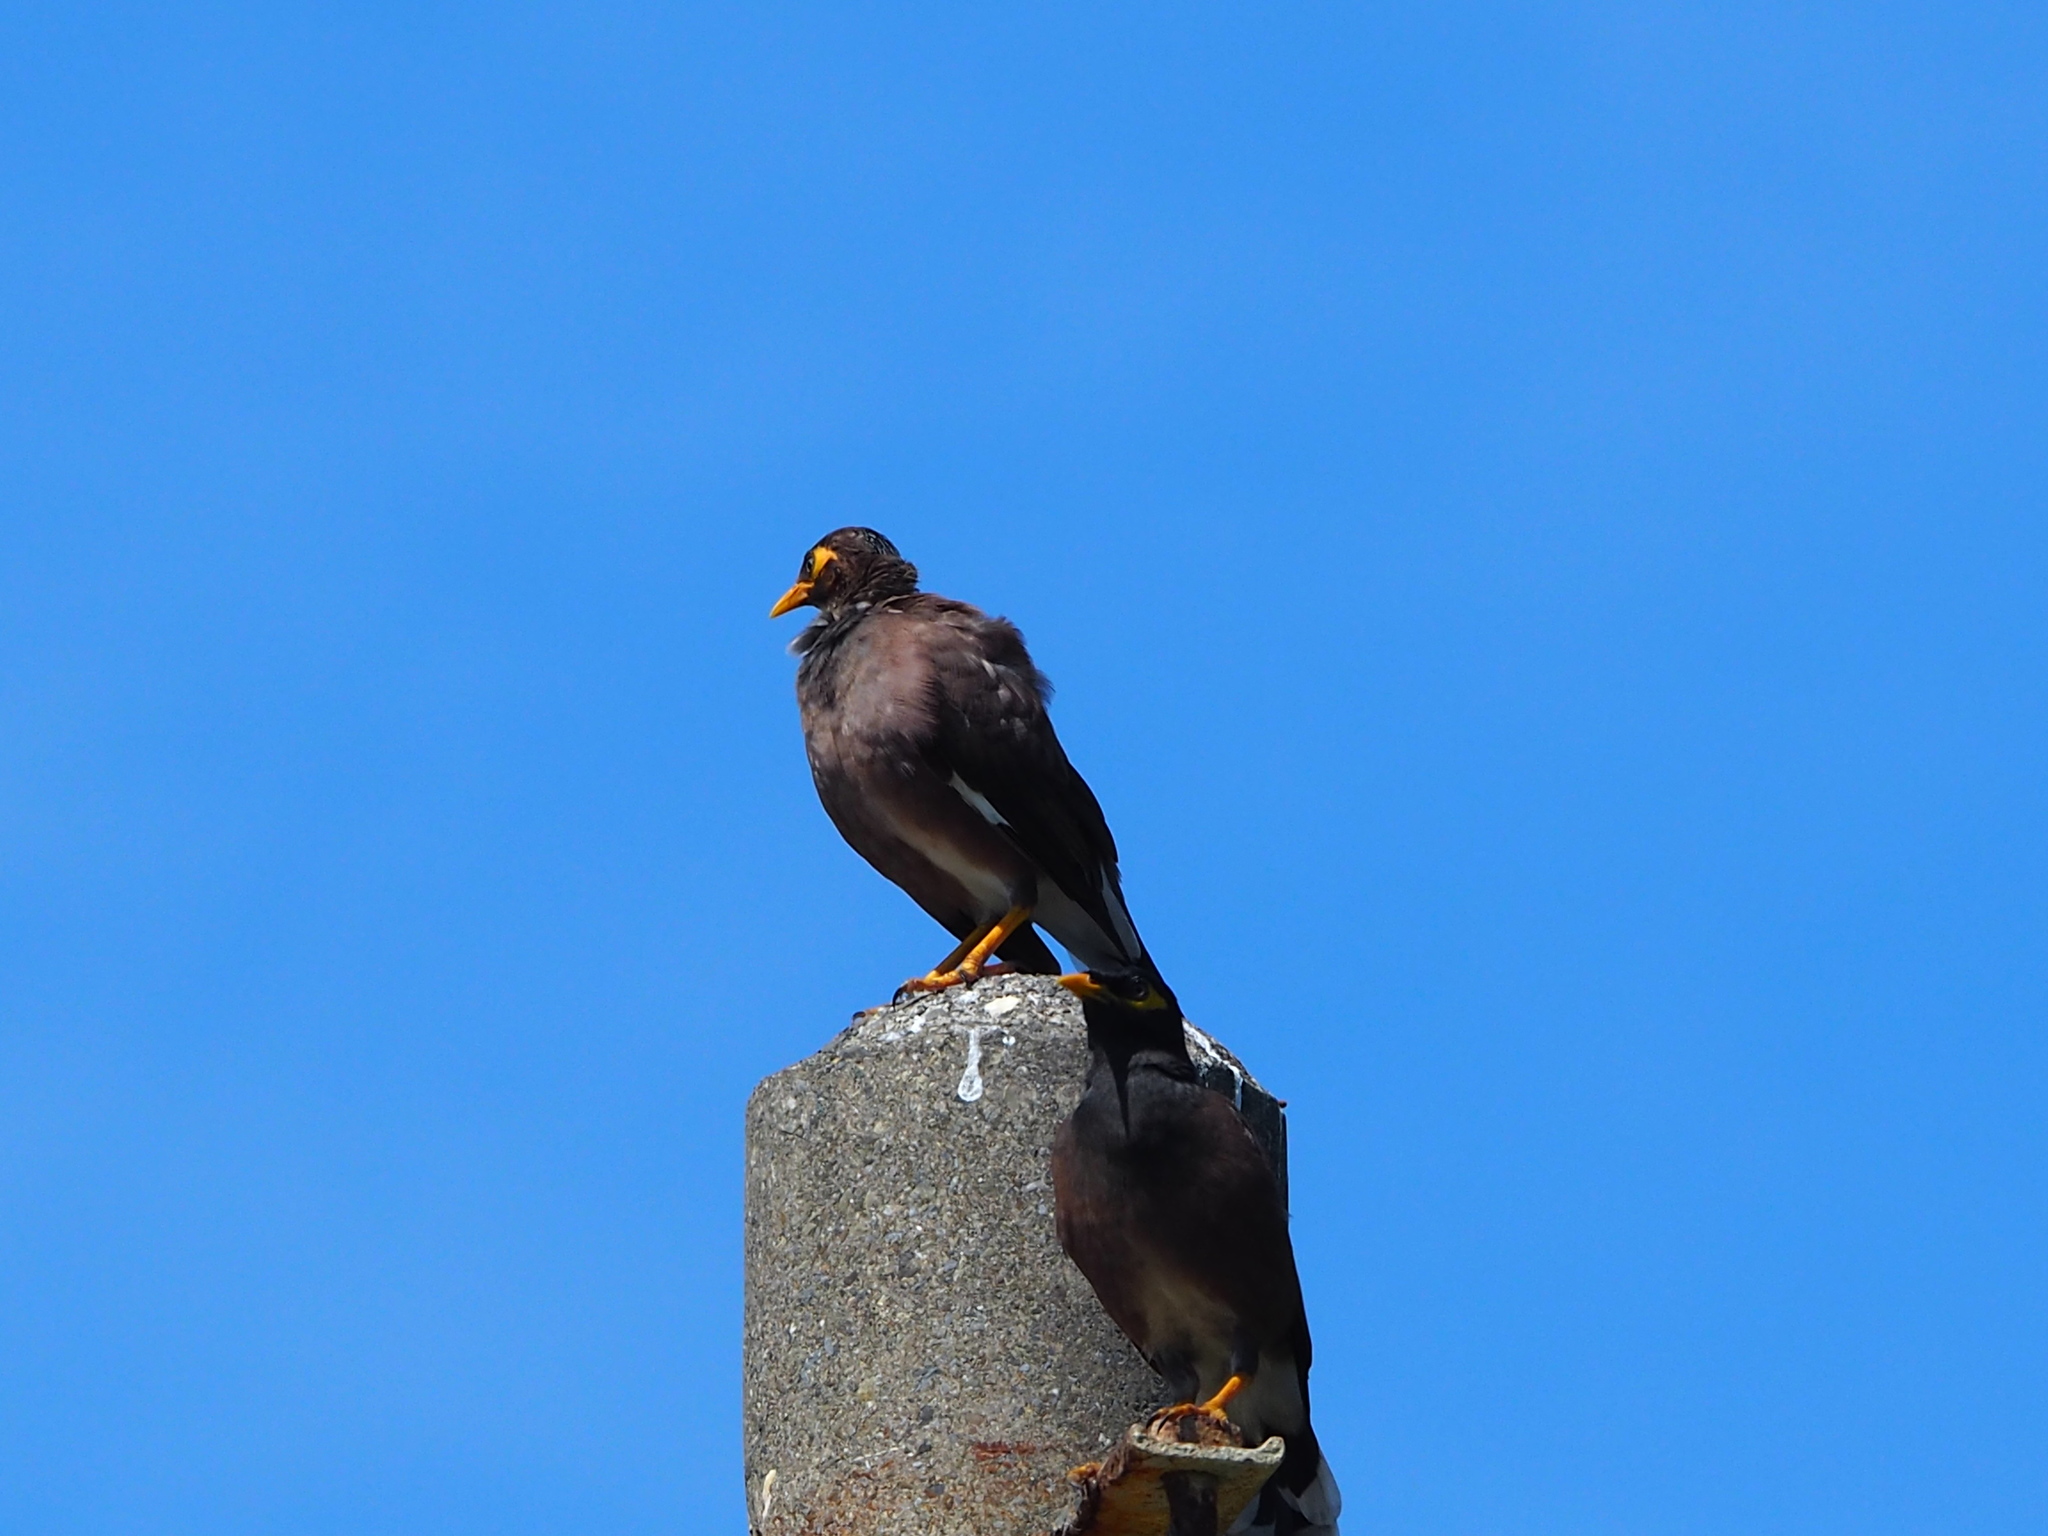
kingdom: Animalia
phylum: Chordata
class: Aves
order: Passeriformes
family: Sturnidae
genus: Acridotheres
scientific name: Acridotheres tristis
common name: Common myna
